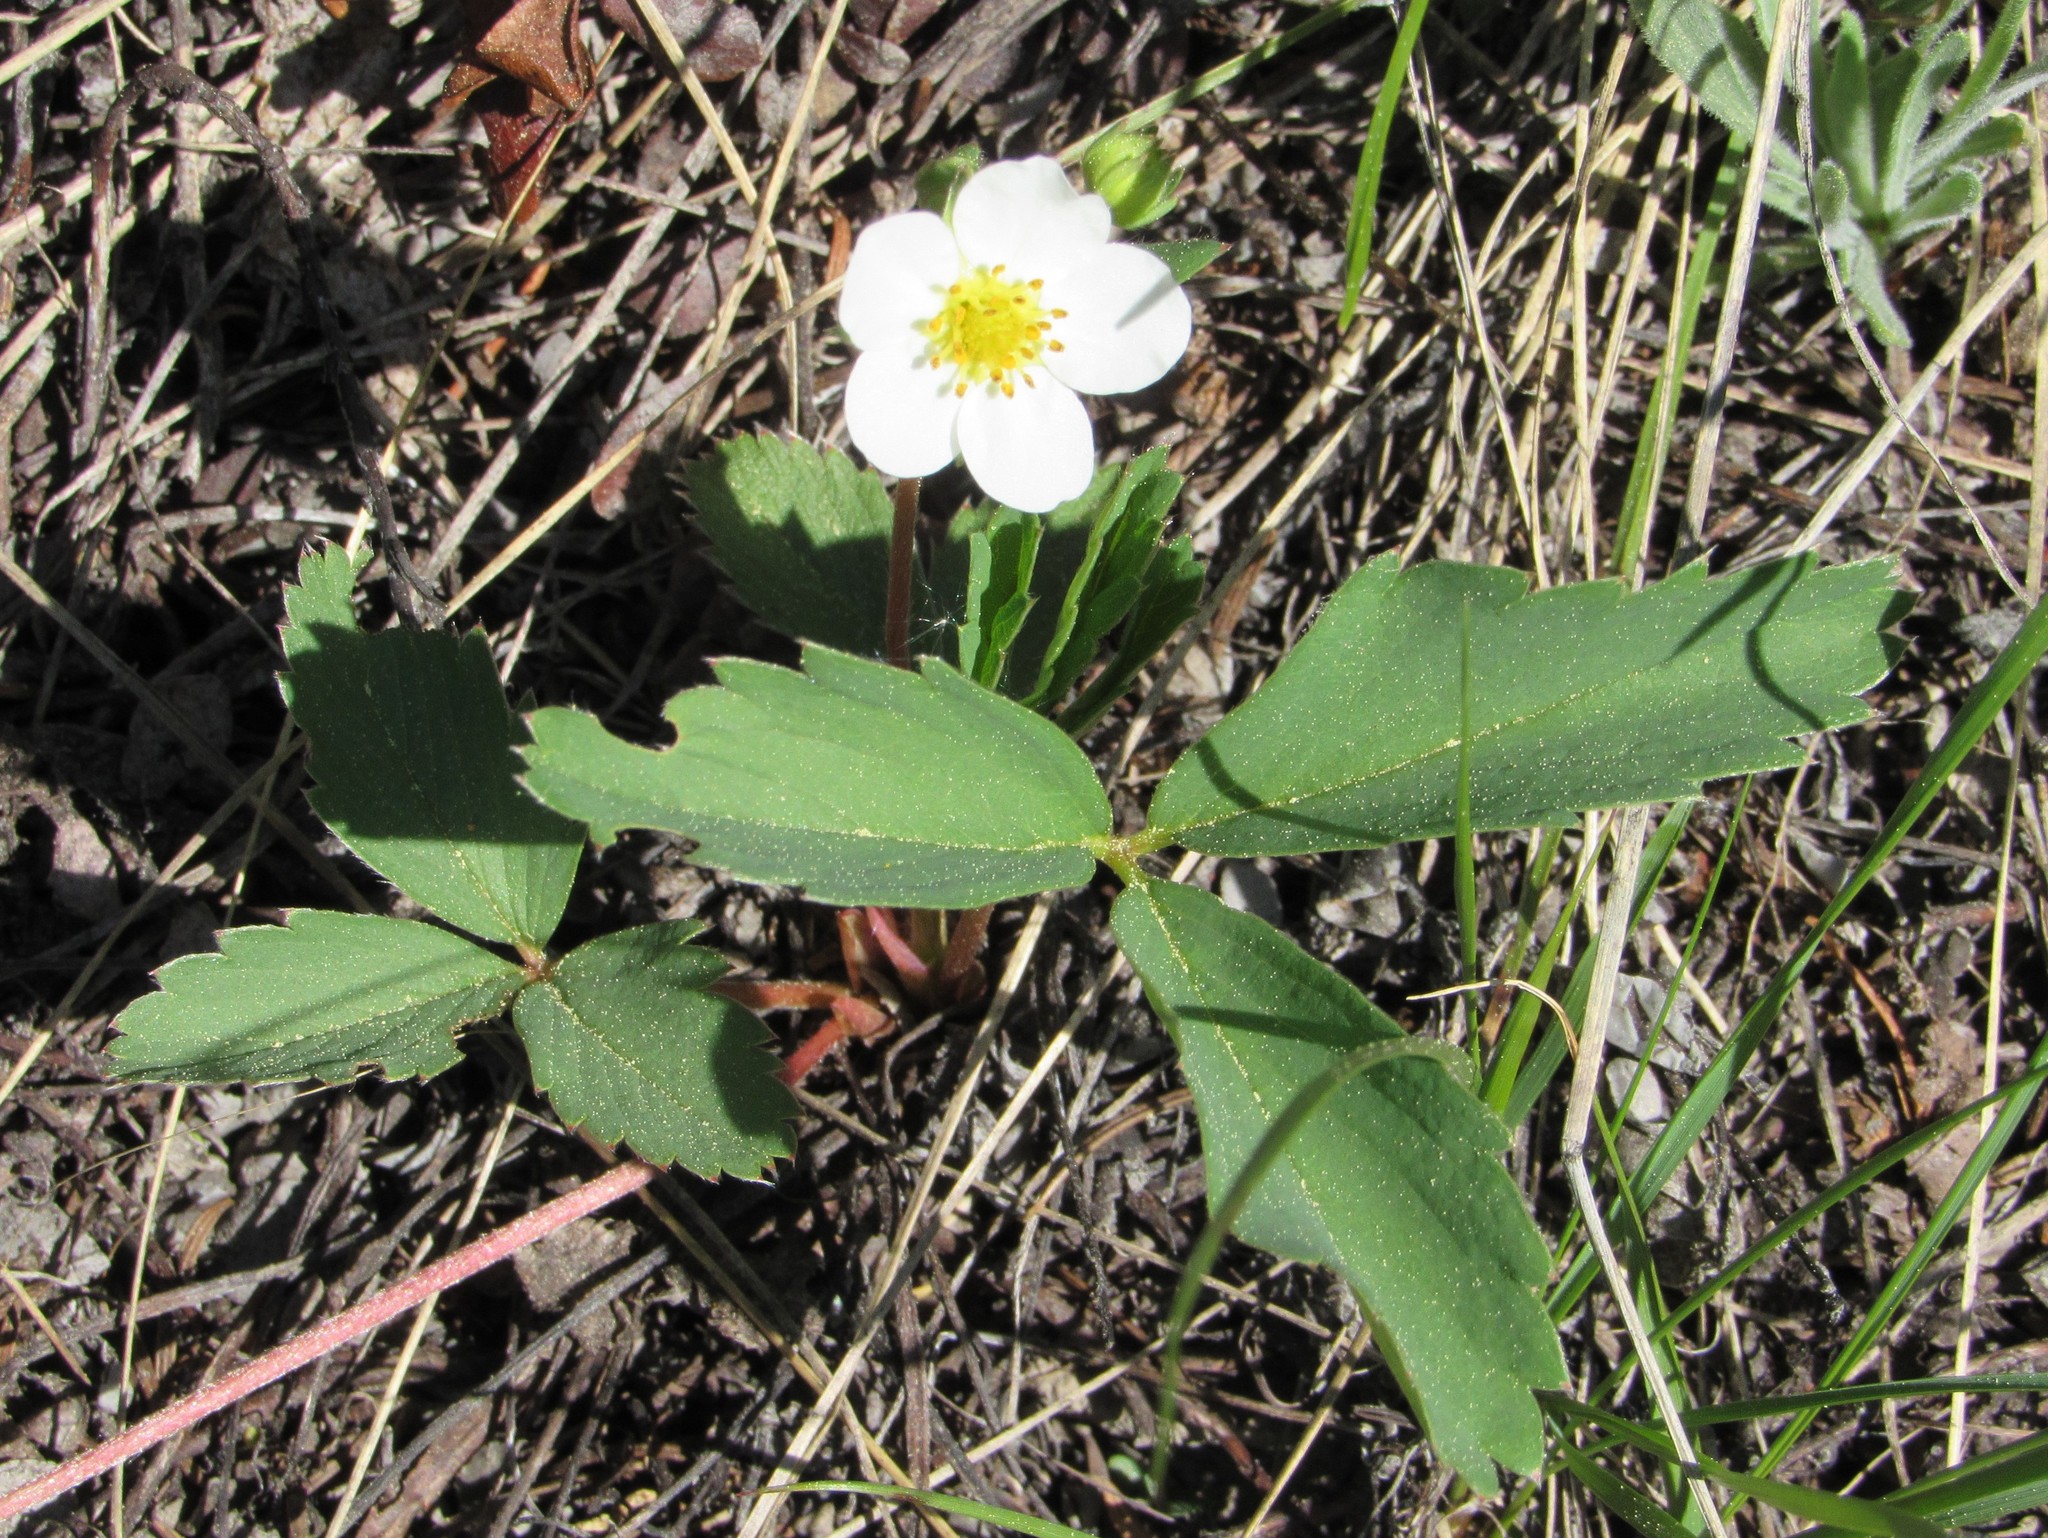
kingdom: Plantae
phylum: Tracheophyta
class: Magnoliopsida
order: Rosales
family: Rosaceae
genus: Fragaria
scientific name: Fragaria virginiana
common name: Thickleaved wild strawberry
